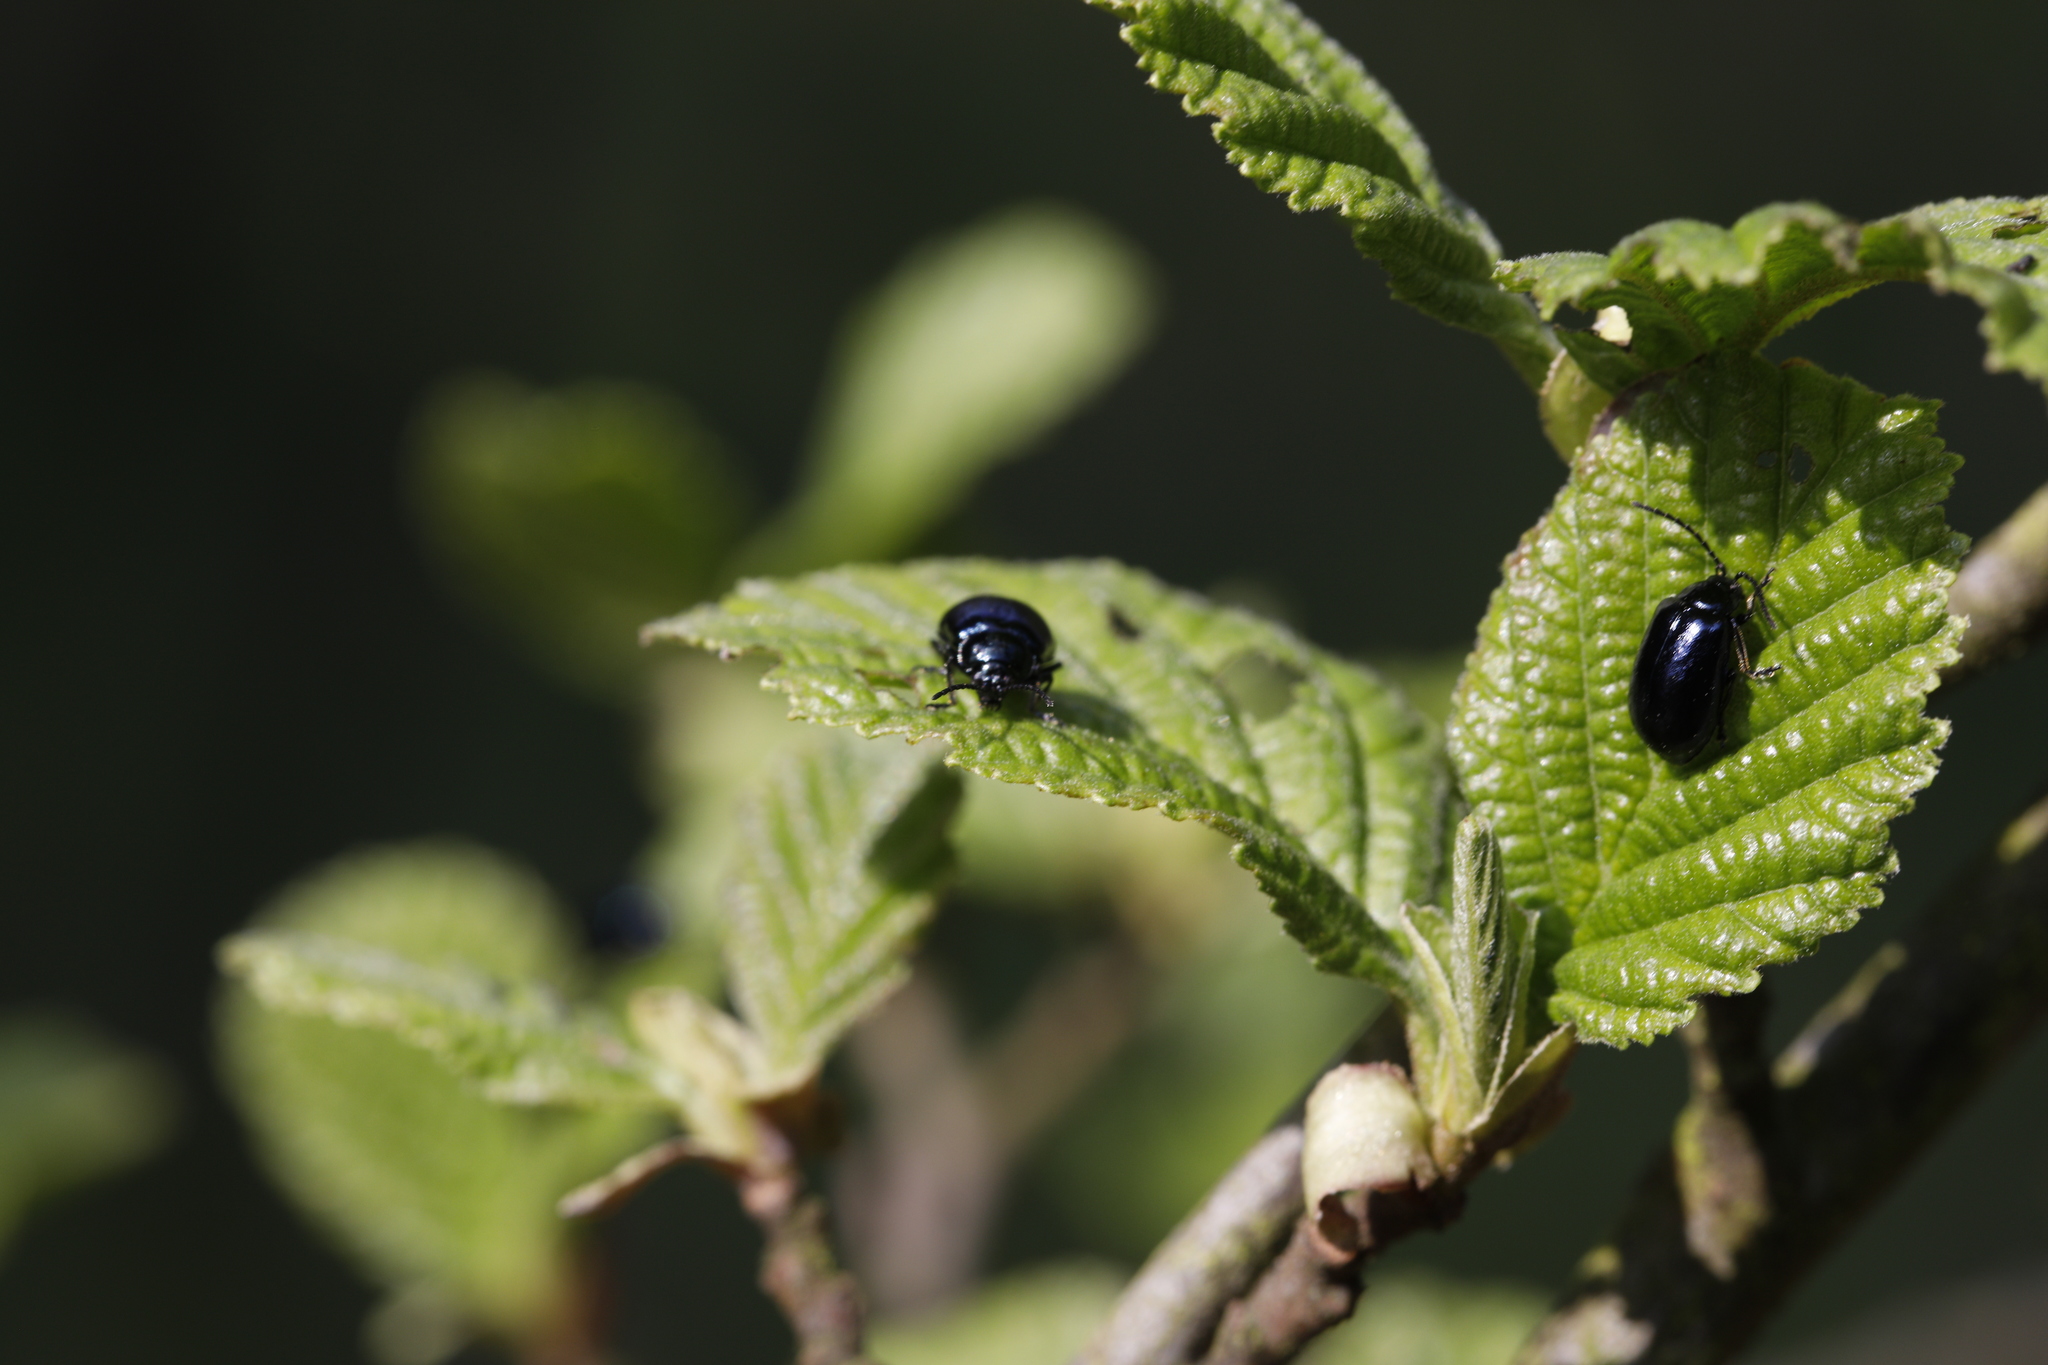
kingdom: Animalia
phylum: Arthropoda
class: Insecta
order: Coleoptera
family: Chrysomelidae
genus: Agelastica
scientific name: Agelastica alni
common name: Alder leaf beetle
